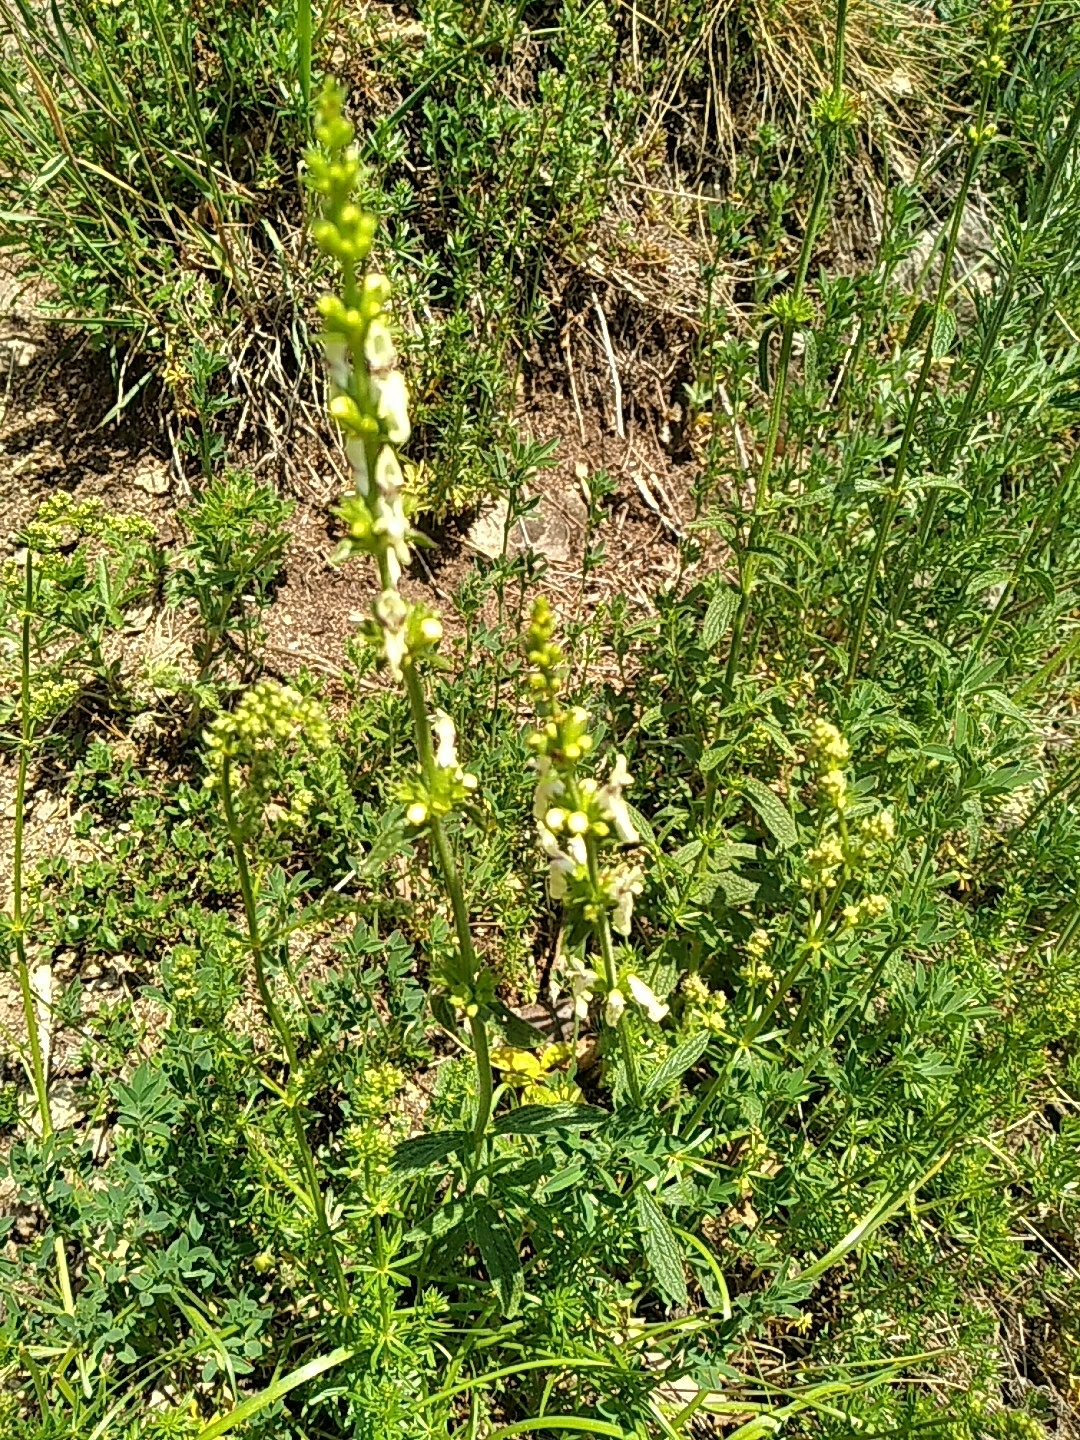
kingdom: Plantae
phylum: Tracheophyta
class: Magnoliopsida
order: Lamiales
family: Lamiaceae
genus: Stachys
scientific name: Stachys recta
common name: Perennial yellow-woundwort
